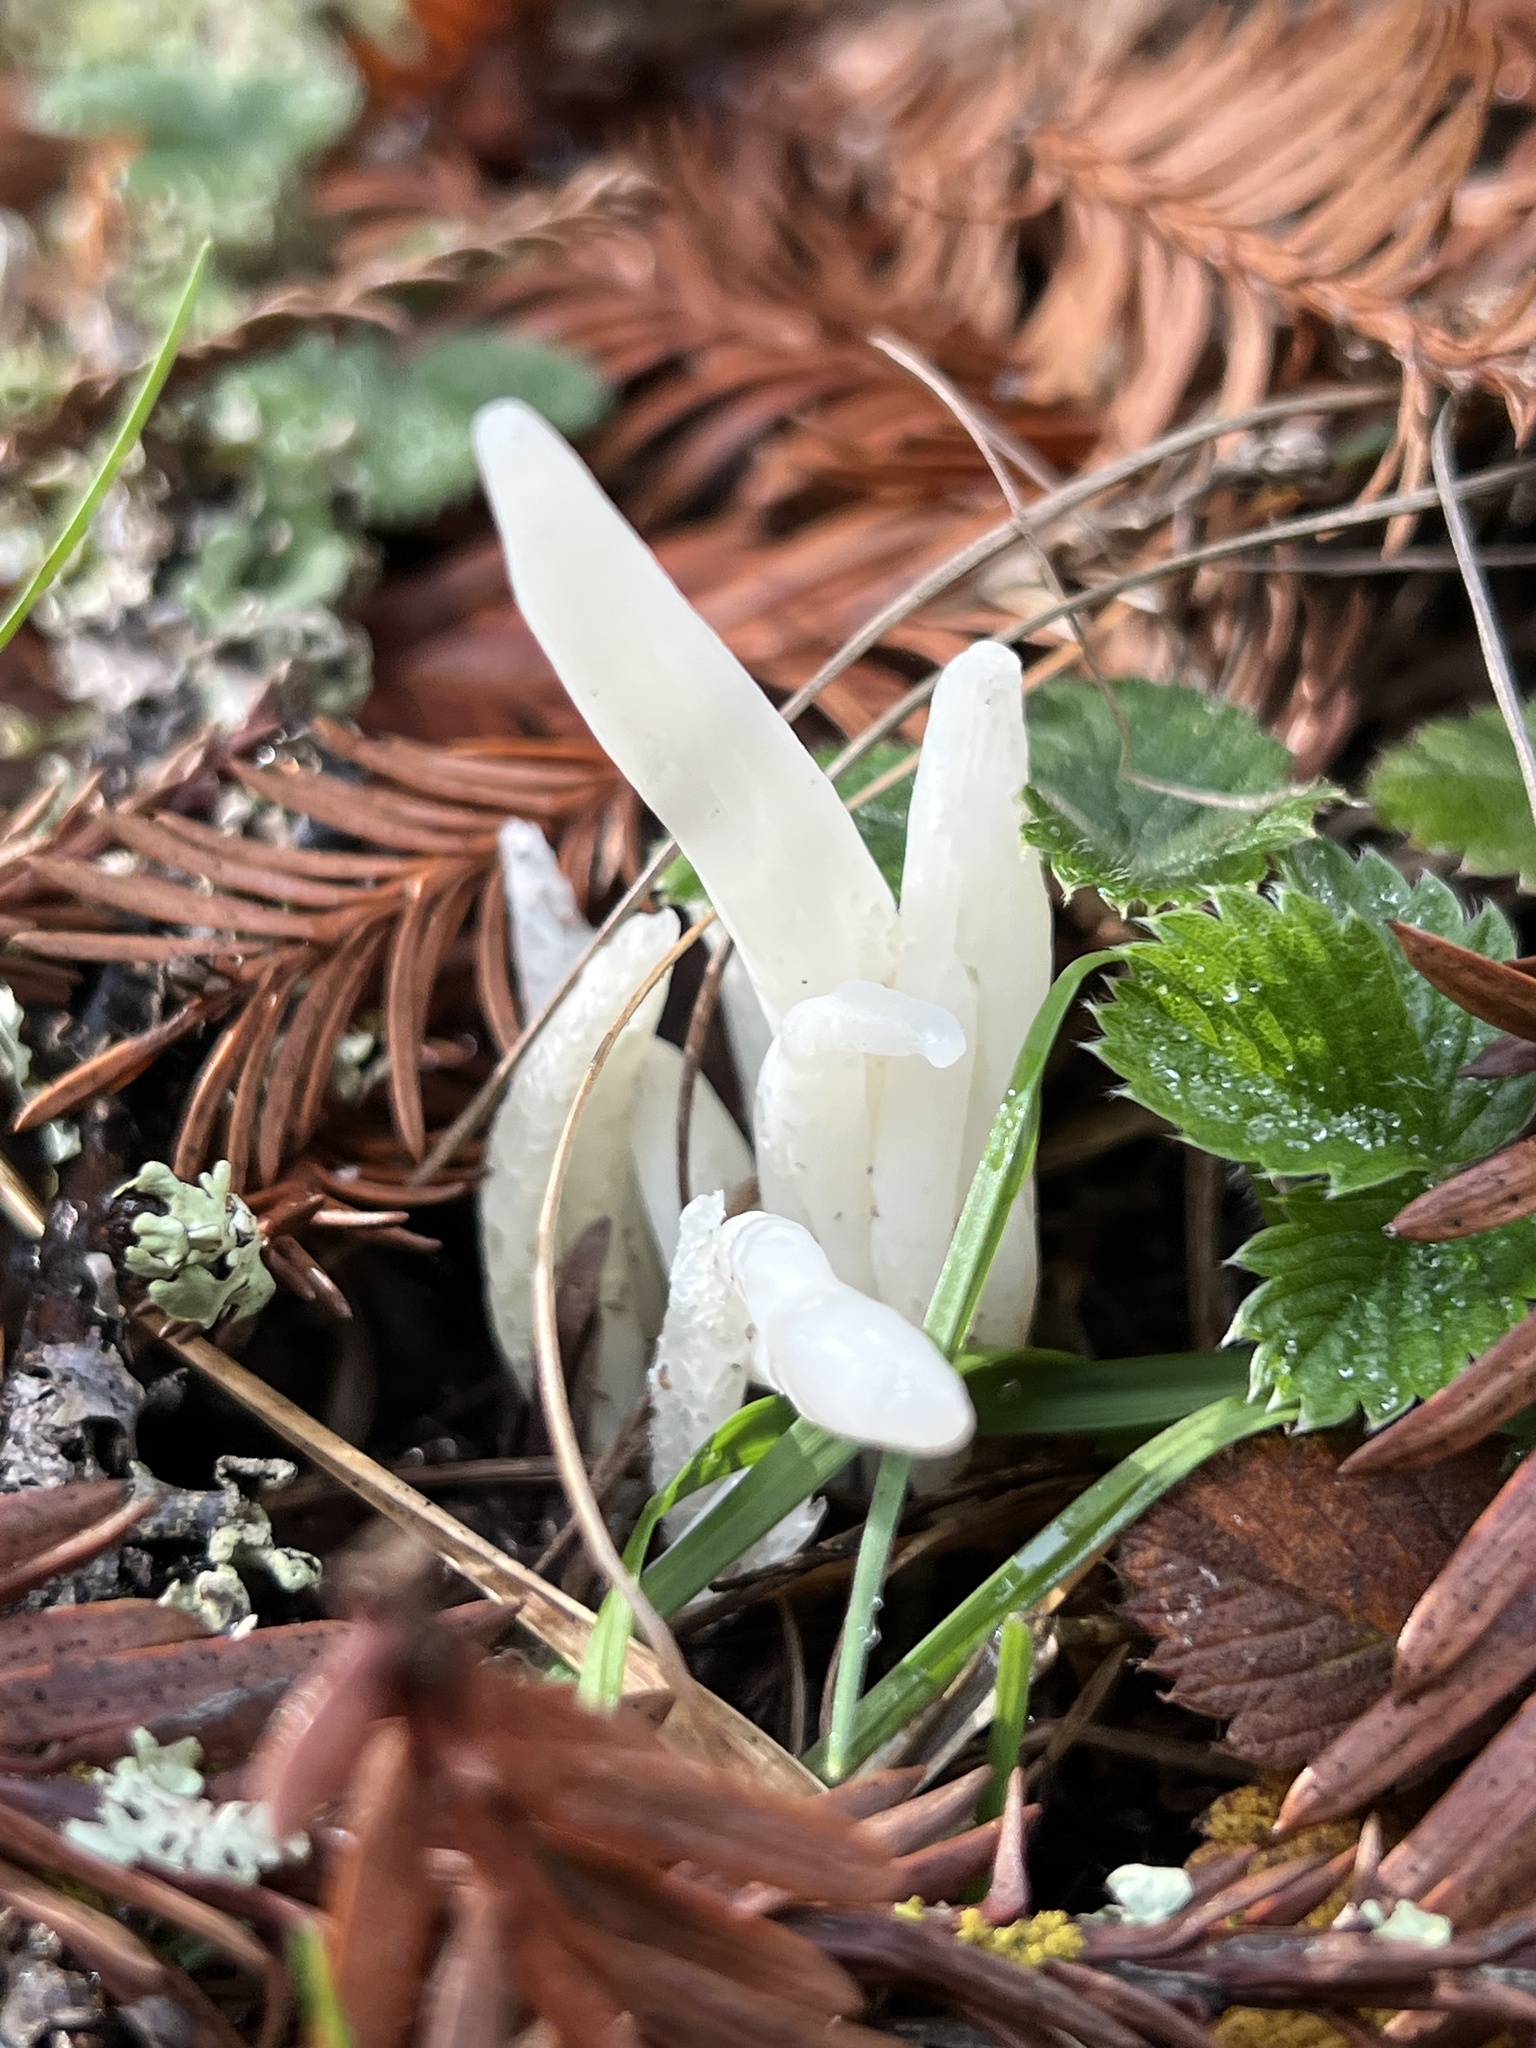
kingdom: Fungi
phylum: Basidiomycota
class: Agaricomycetes
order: Agaricales
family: Clavariaceae
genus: Clavaria
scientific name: Clavaria fragilis
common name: White spindles
